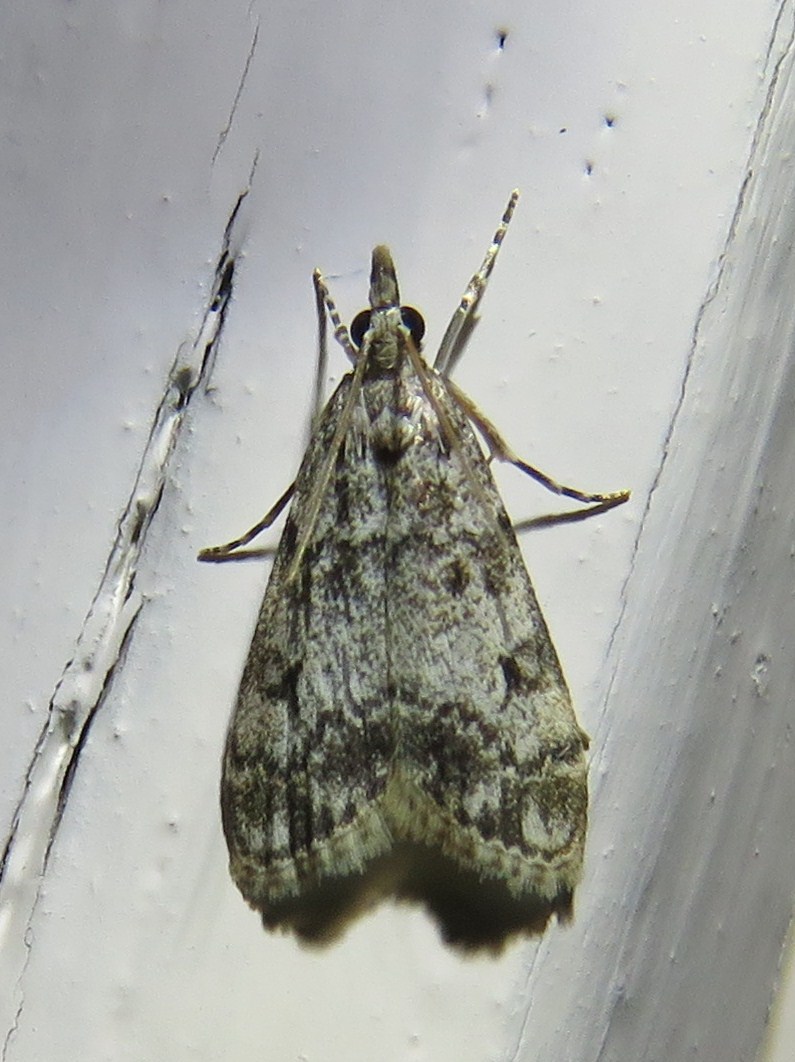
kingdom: Animalia
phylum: Arthropoda
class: Insecta
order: Lepidoptera
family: Crambidae
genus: Eudonia
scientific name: Eudonia lacustrata
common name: Little grey
